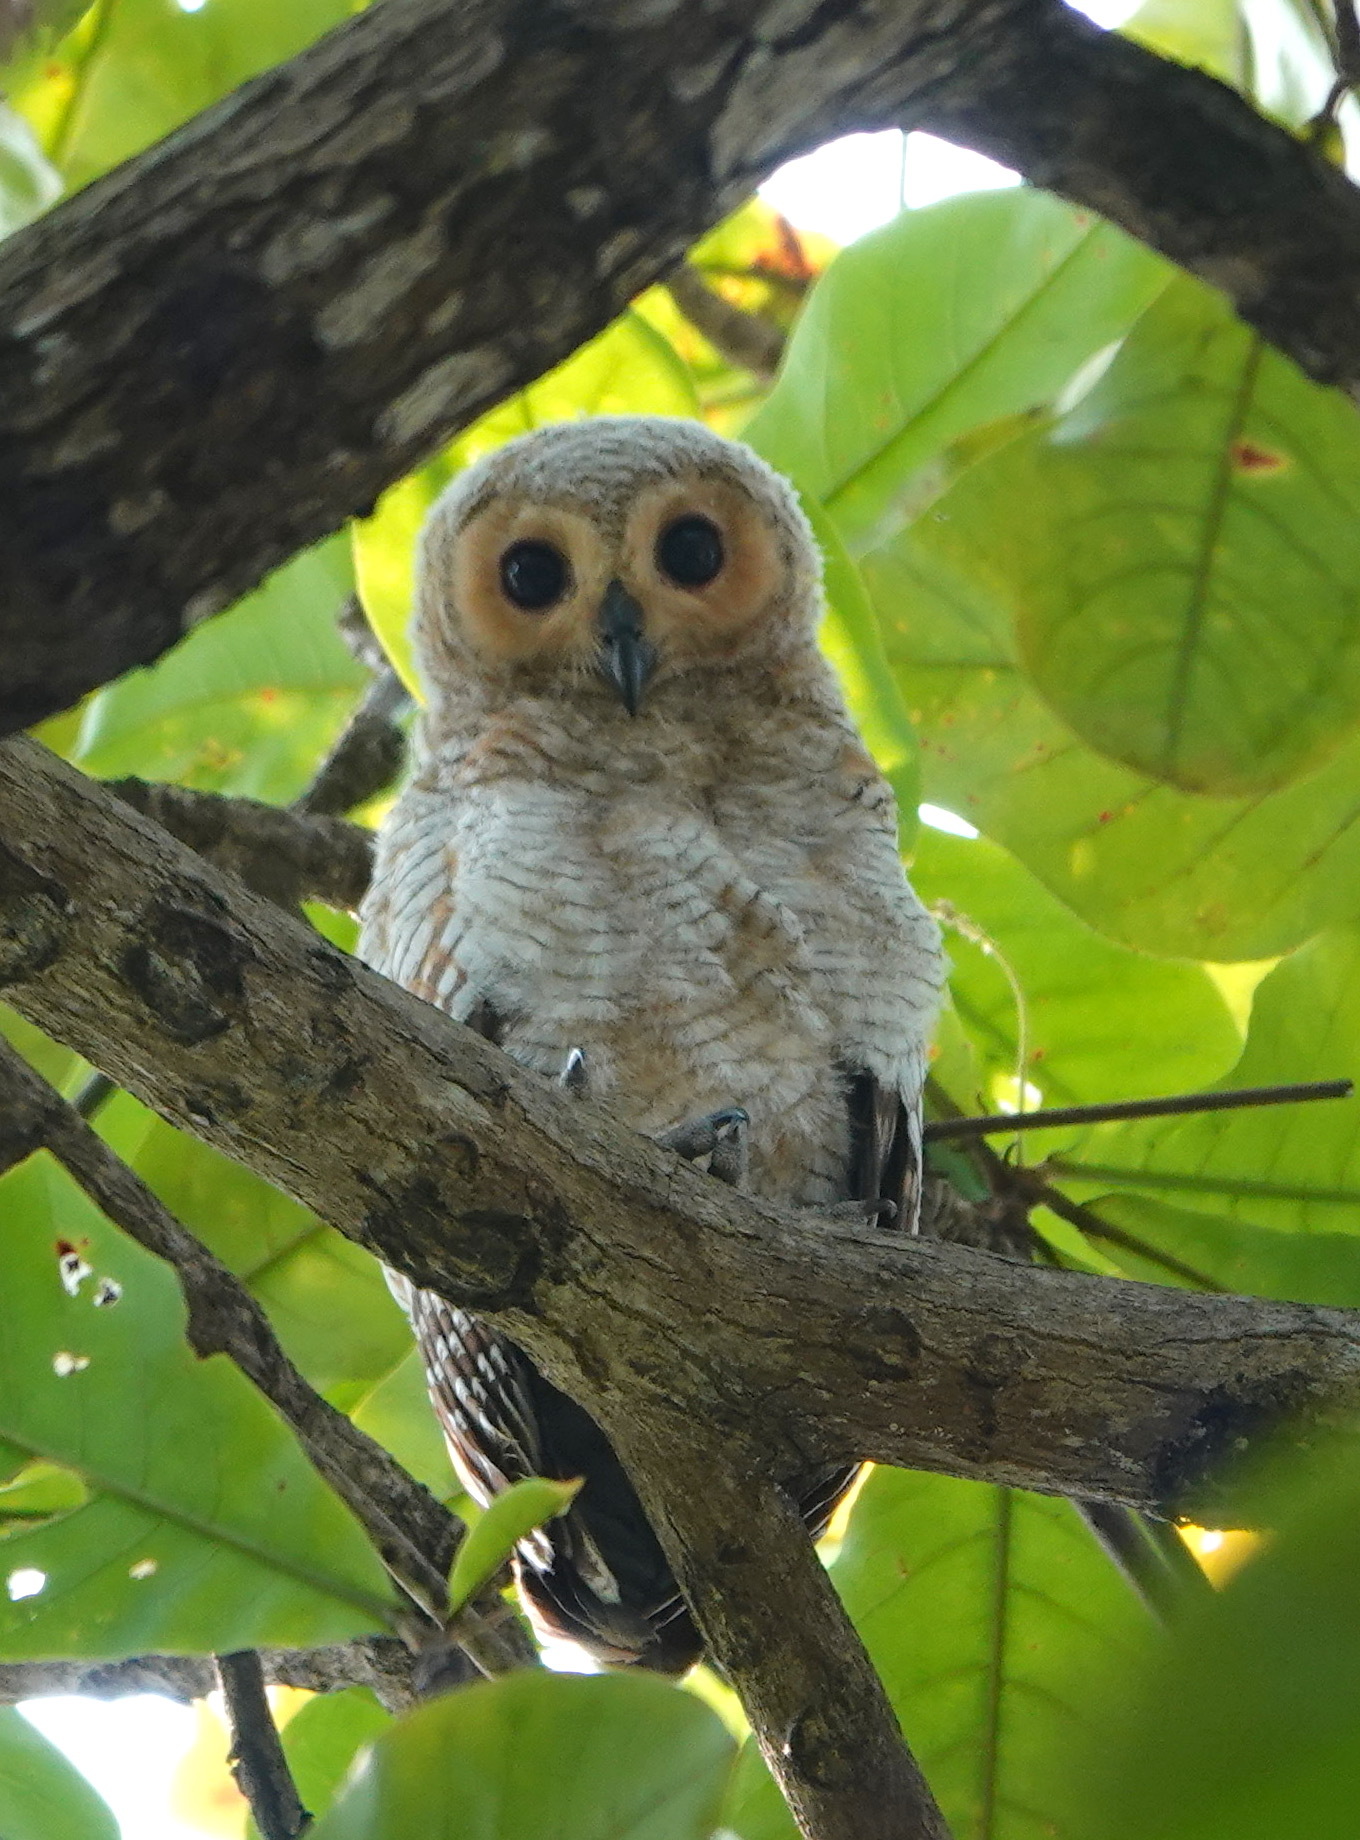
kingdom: Animalia
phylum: Chordata
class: Aves
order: Strigiformes
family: Strigidae
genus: Strix
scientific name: Strix seloputo
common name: Spotted wood owl
